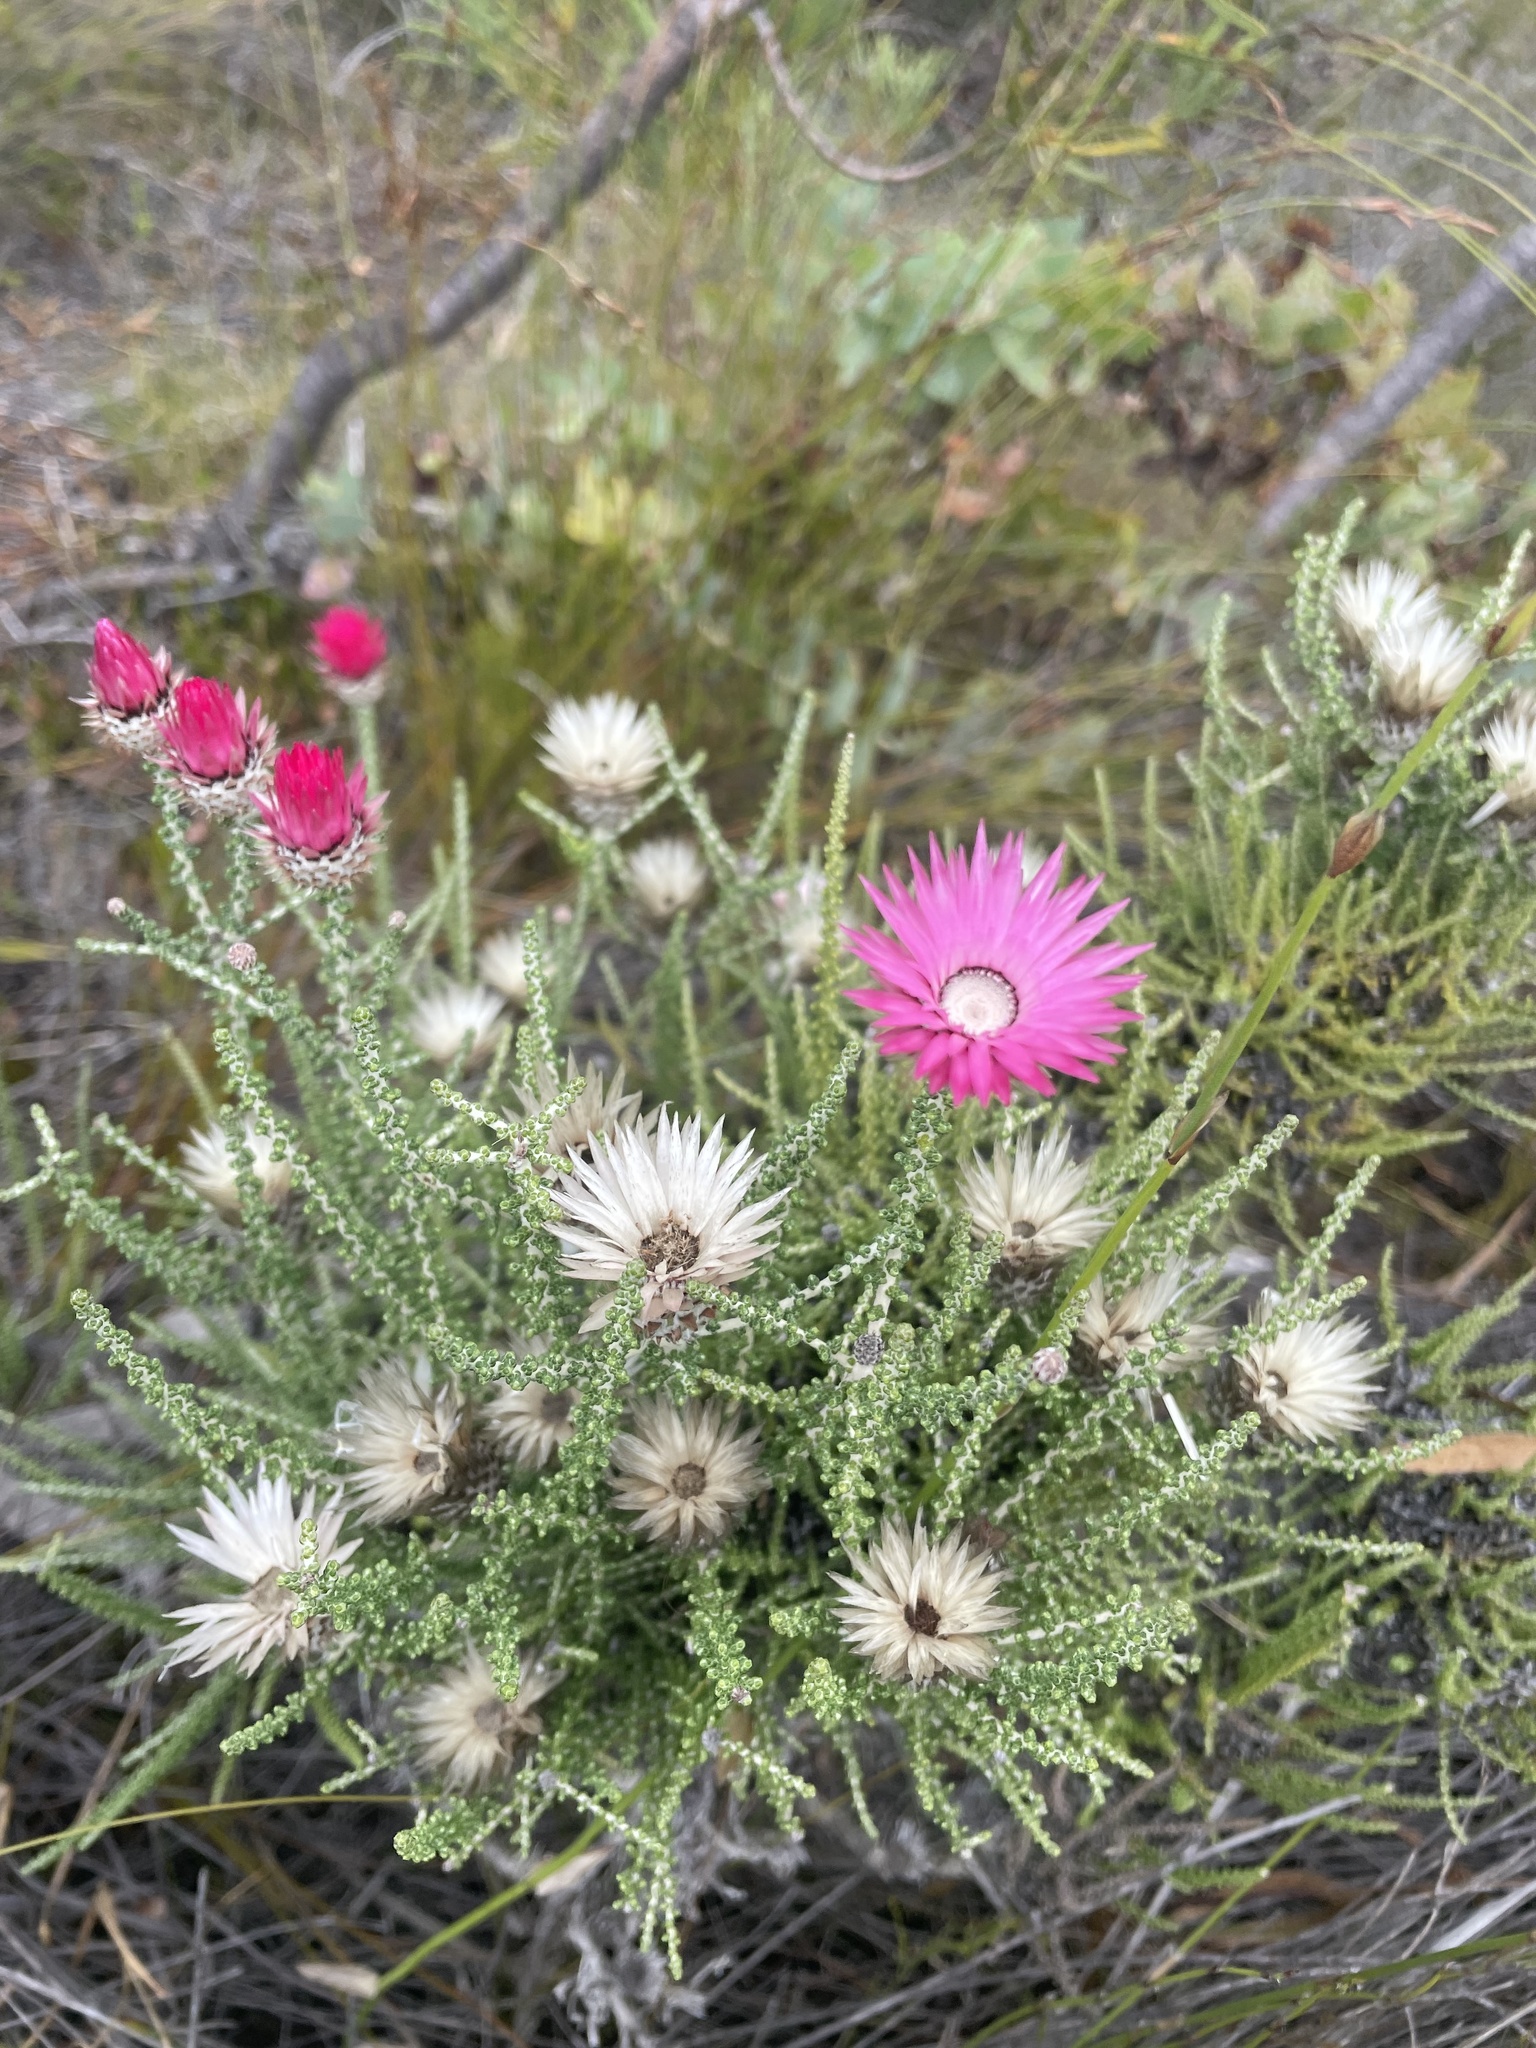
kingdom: Plantae
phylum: Tracheophyta
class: Magnoliopsida
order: Asterales
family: Asteraceae
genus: Phaenocoma
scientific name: Phaenocoma prolifera
